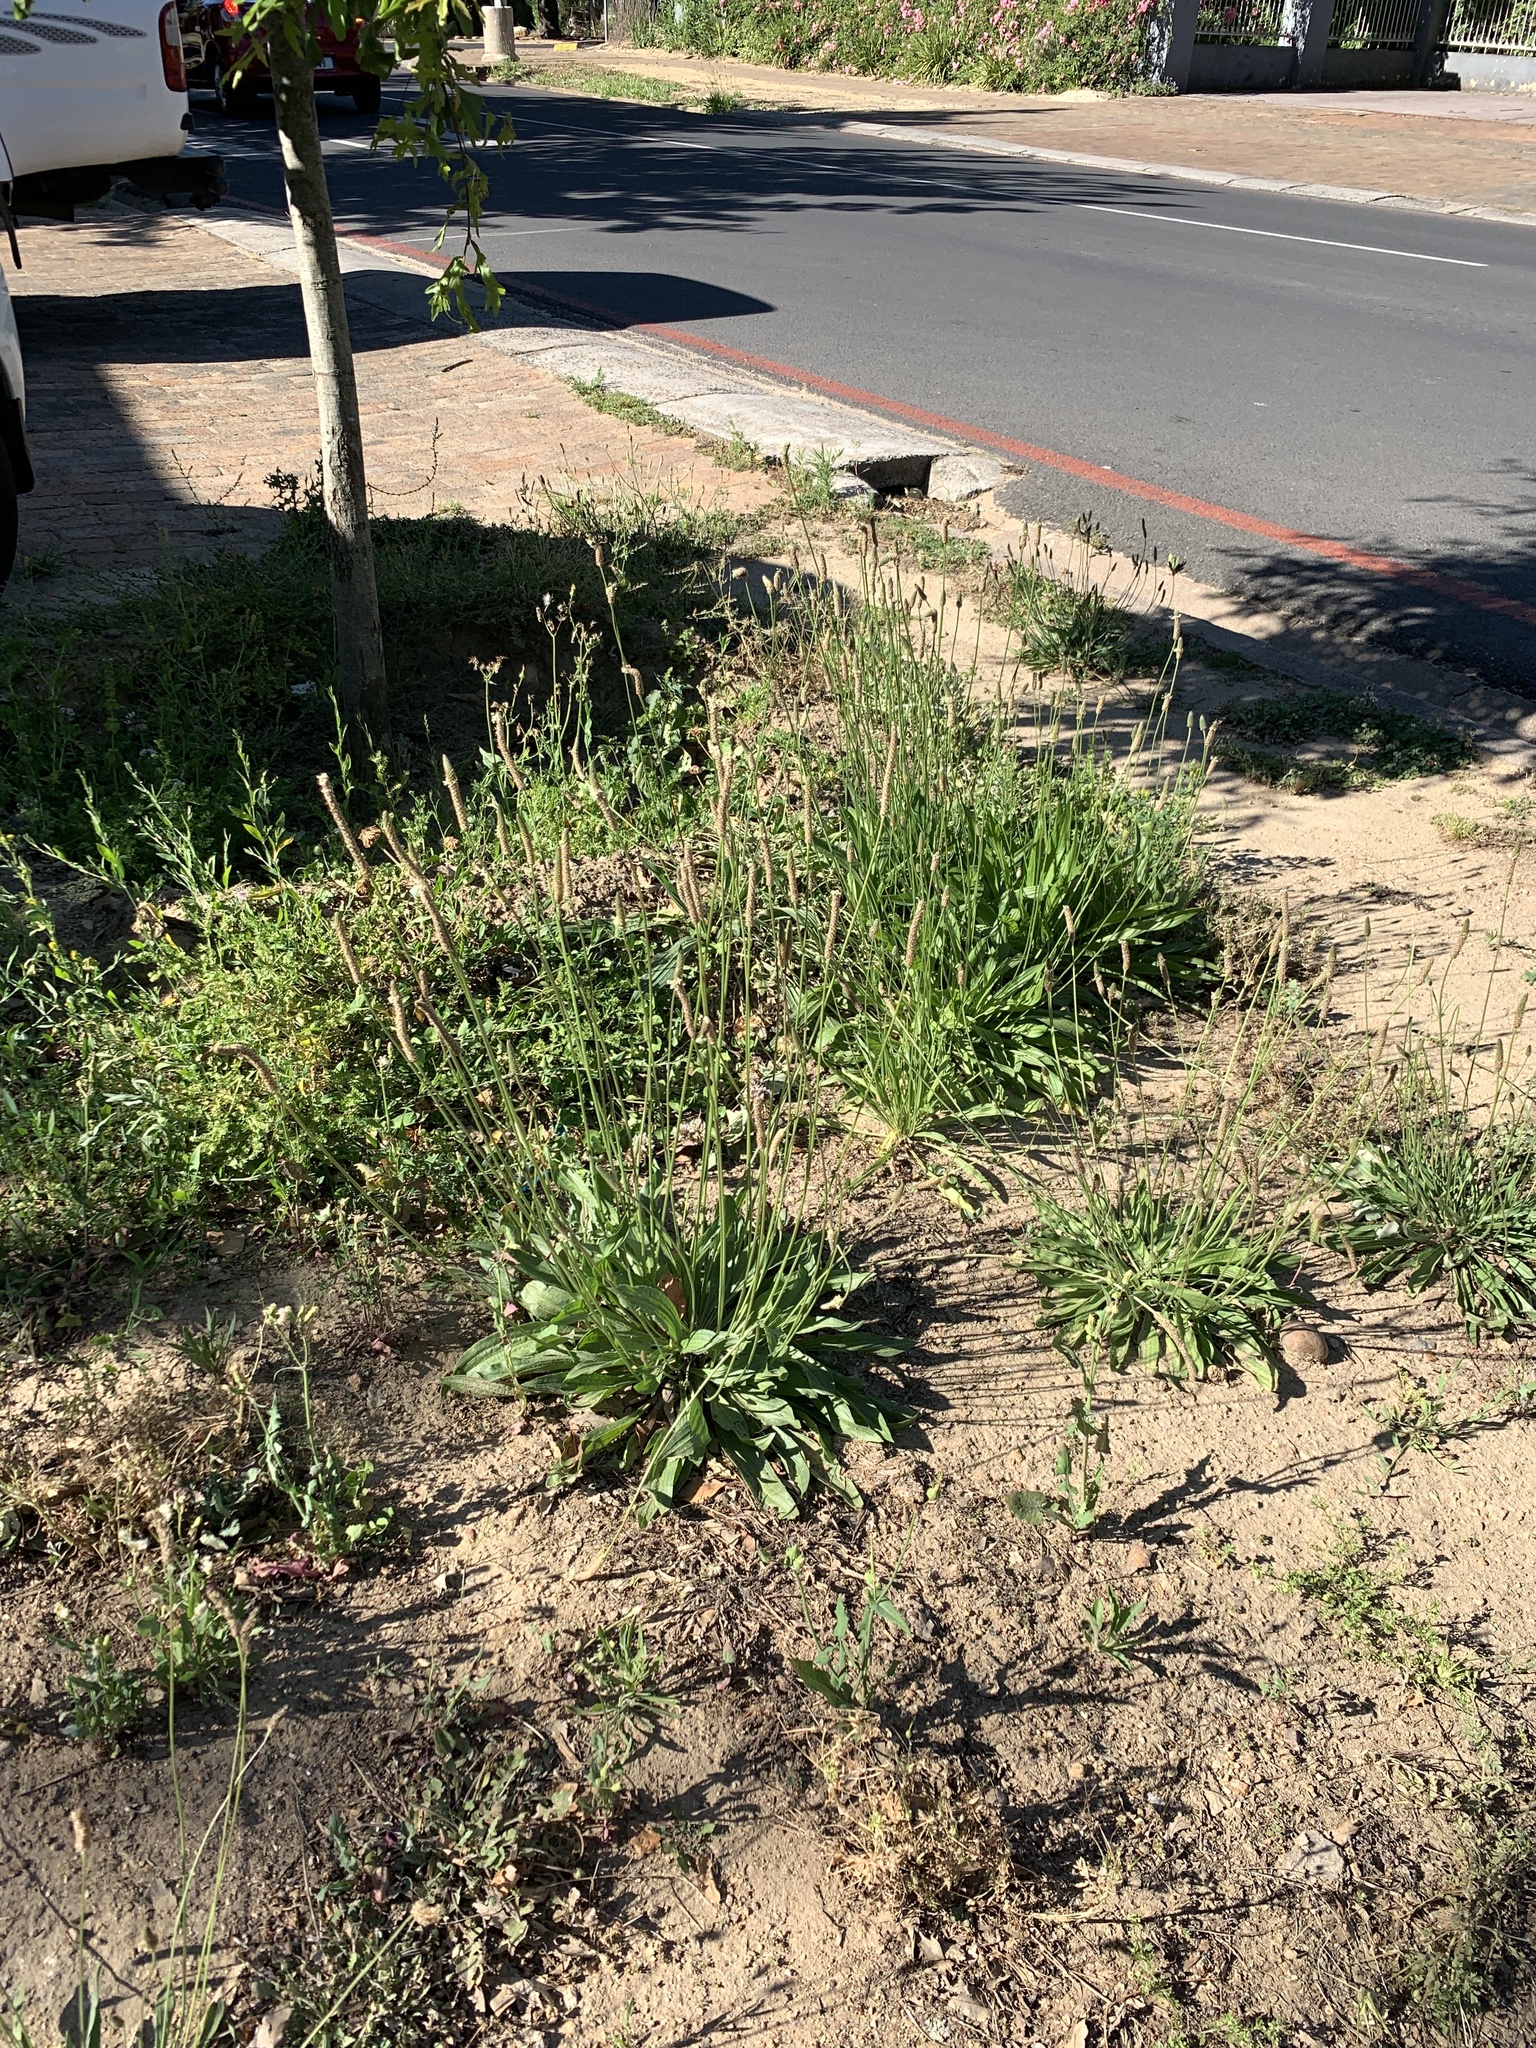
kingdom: Plantae
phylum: Tracheophyta
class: Magnoliopsida
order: Lamiales
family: Plantaginaceae
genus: Plantago
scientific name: Plantago lanceolata
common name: Ribwort plantain
